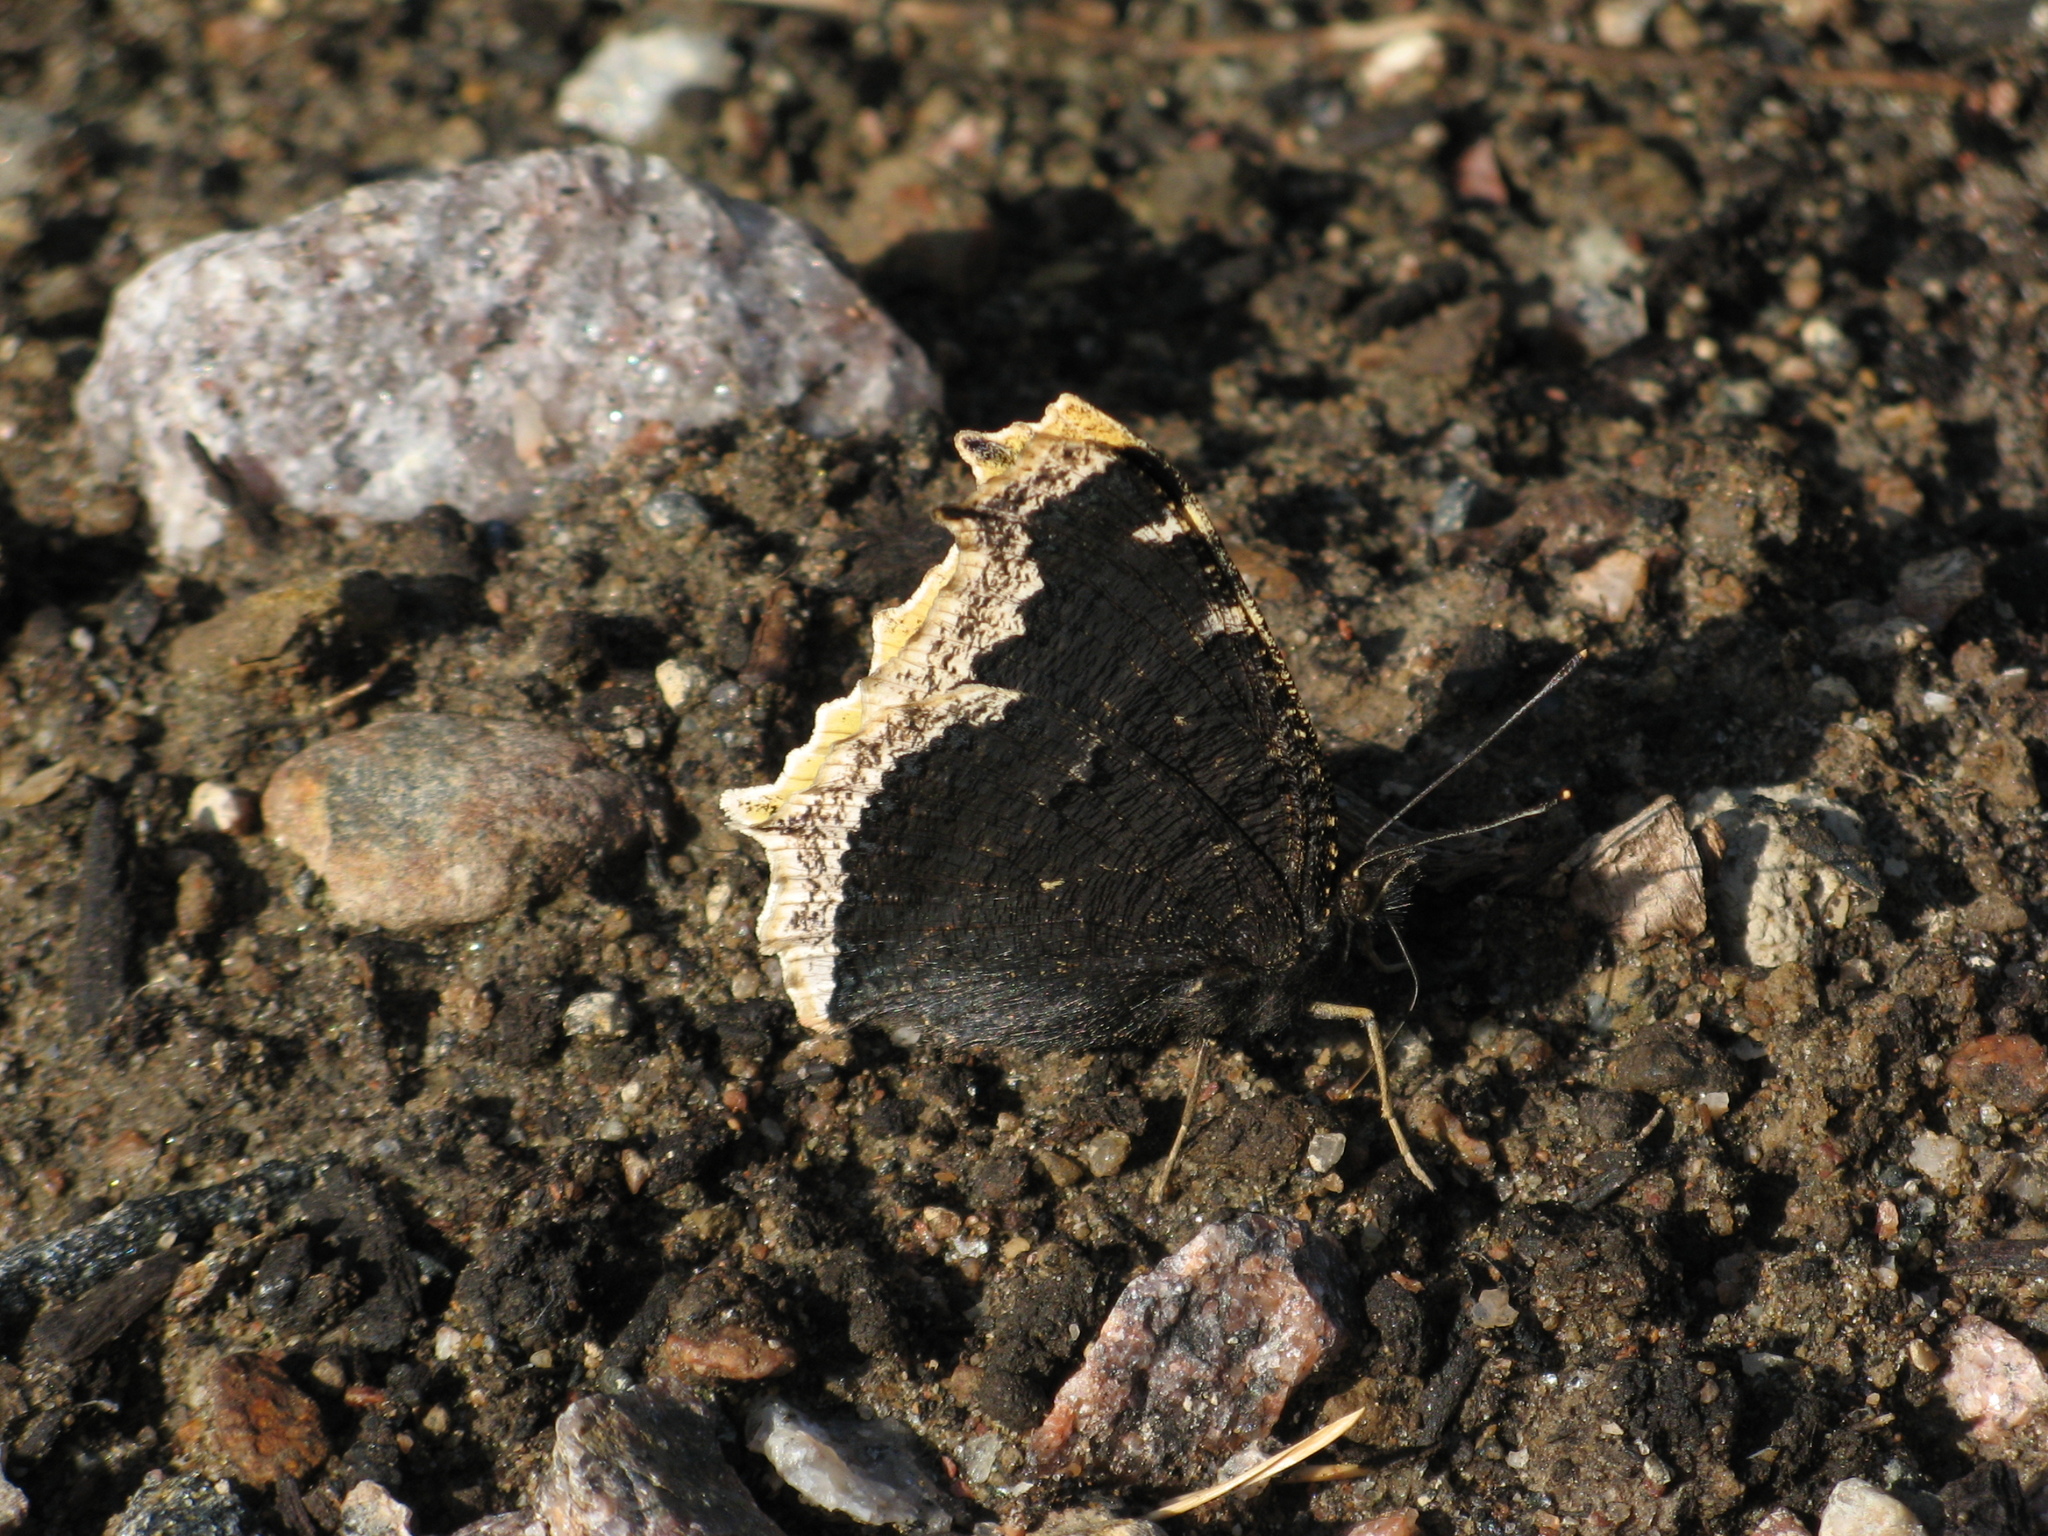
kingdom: Animalia
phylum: Arthropoda
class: Insecta
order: Lepidoptera
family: Nymphalidae
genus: Nymphalis
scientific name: Nymphalis antiopa
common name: Camberwell beauty
